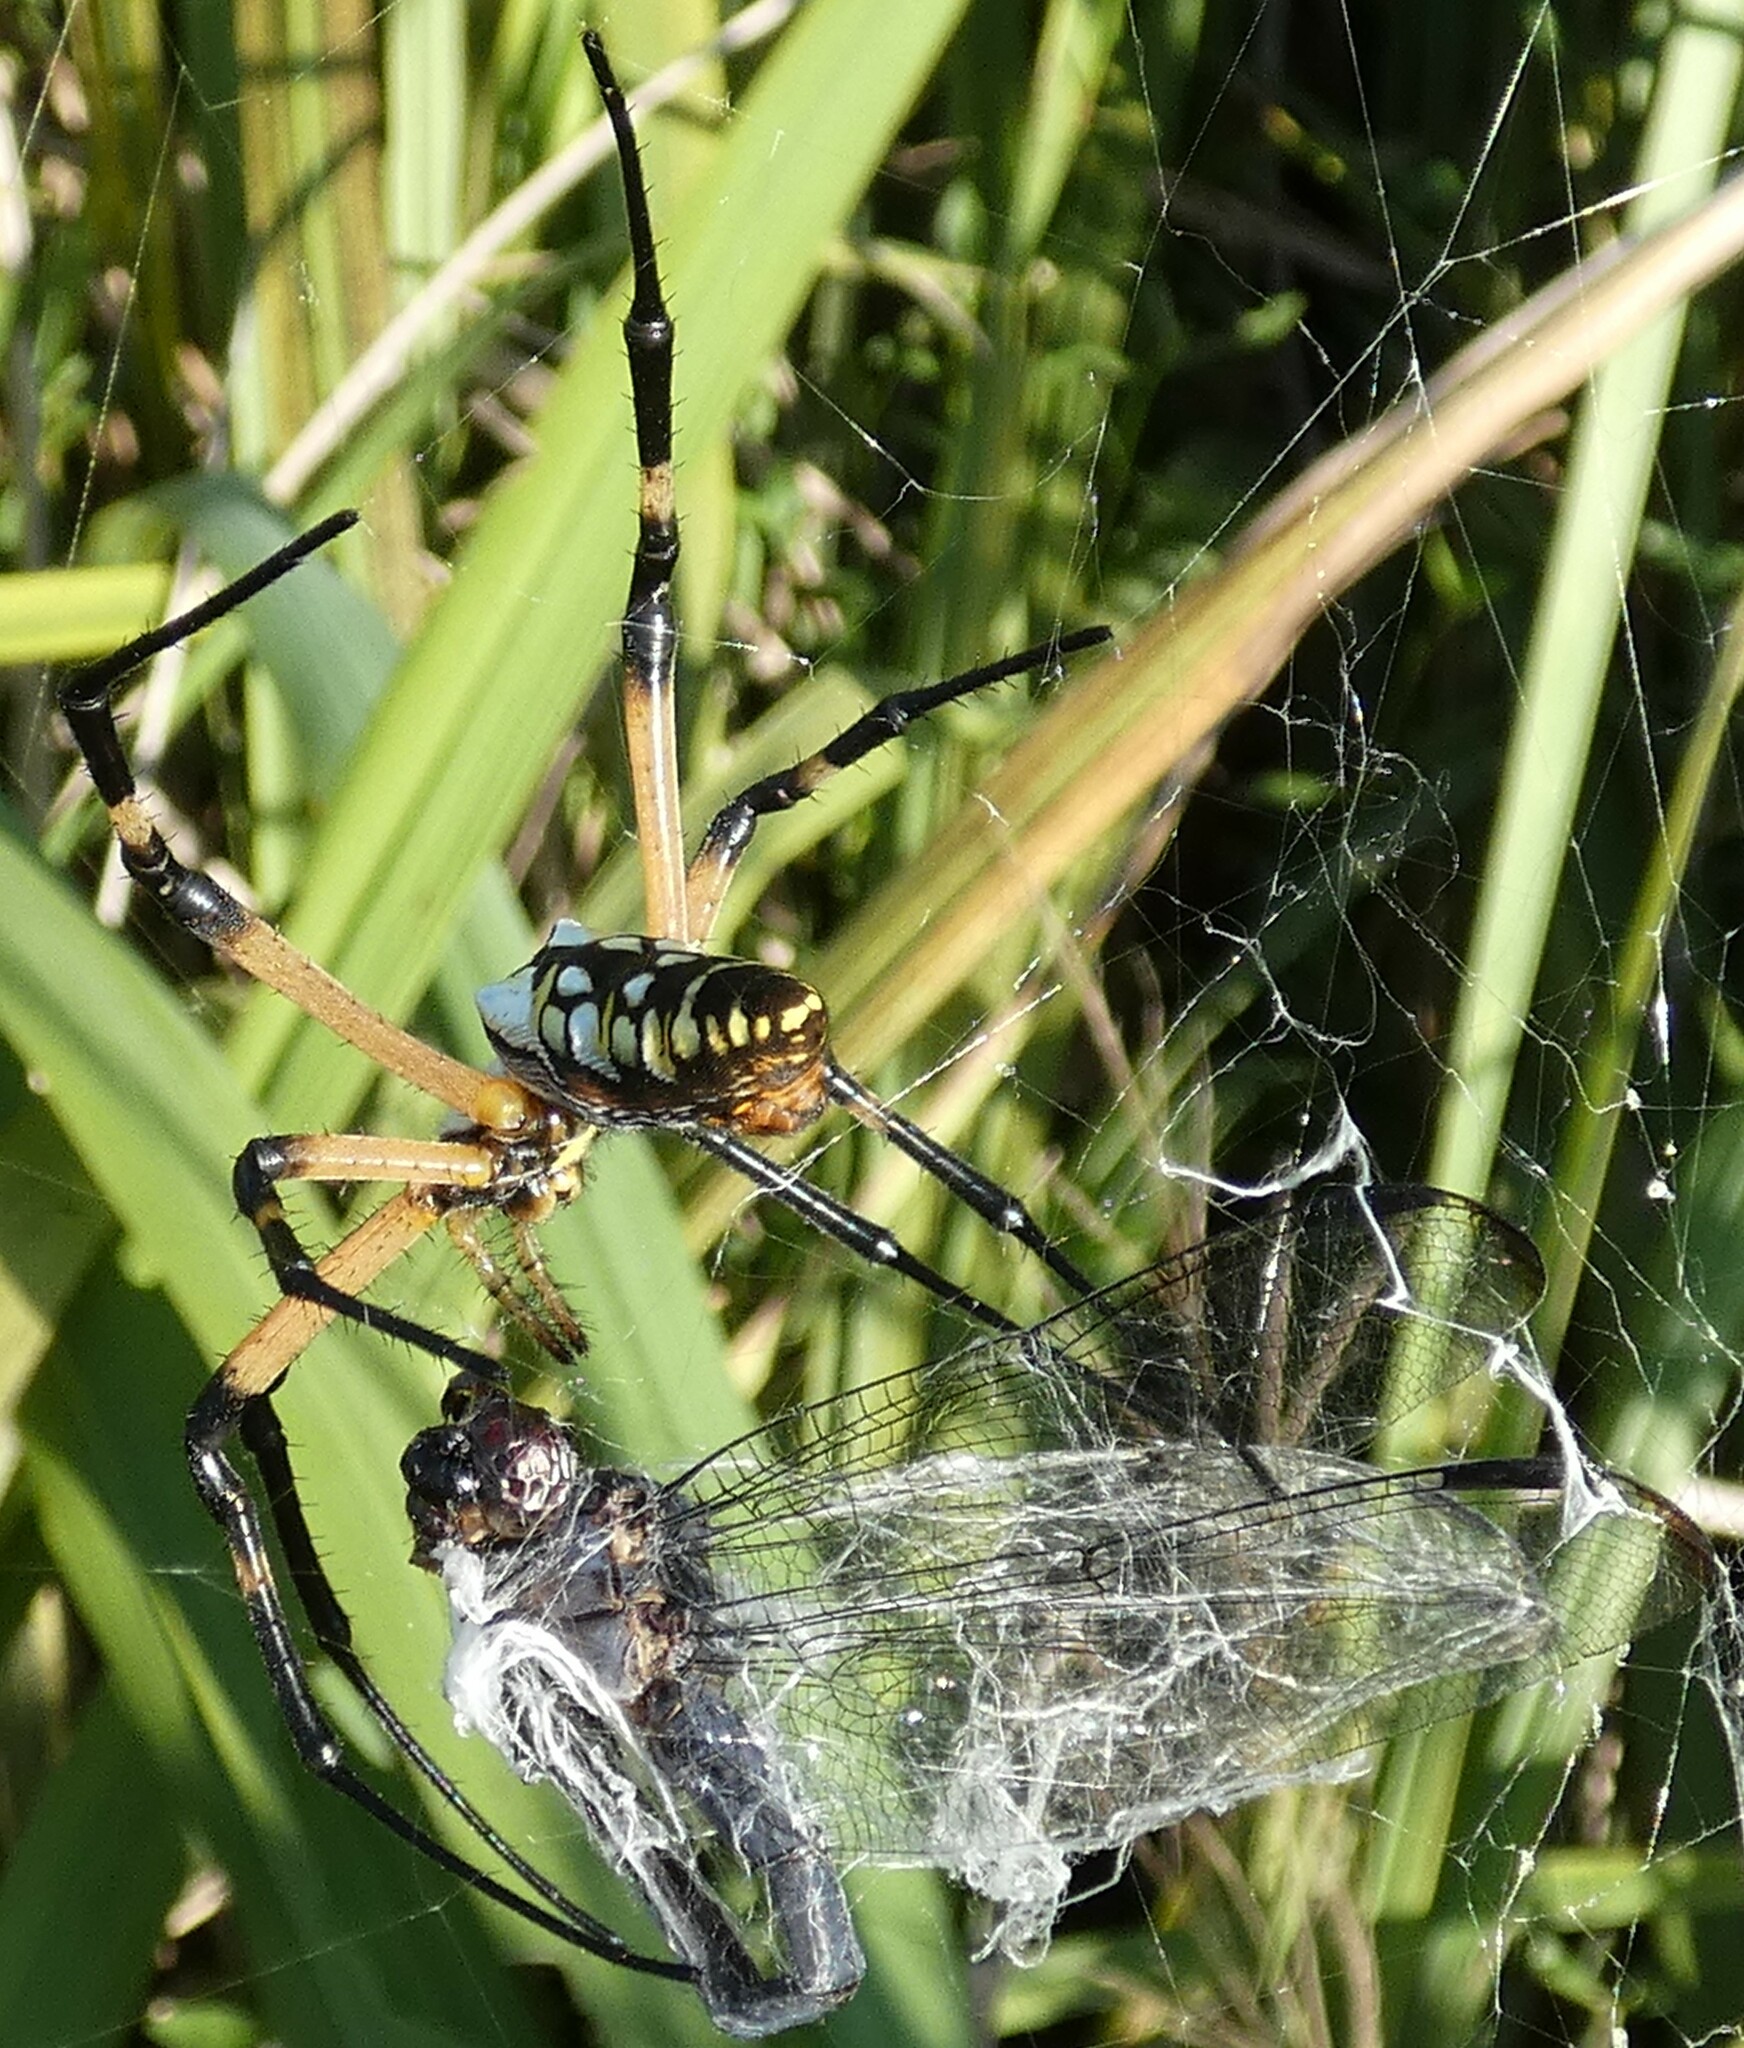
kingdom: Animalia
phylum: Arthropoda
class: Arachnida
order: Araneae
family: Araneidae
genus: Argiope
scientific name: Argiope aurantia
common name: Orb weavers
